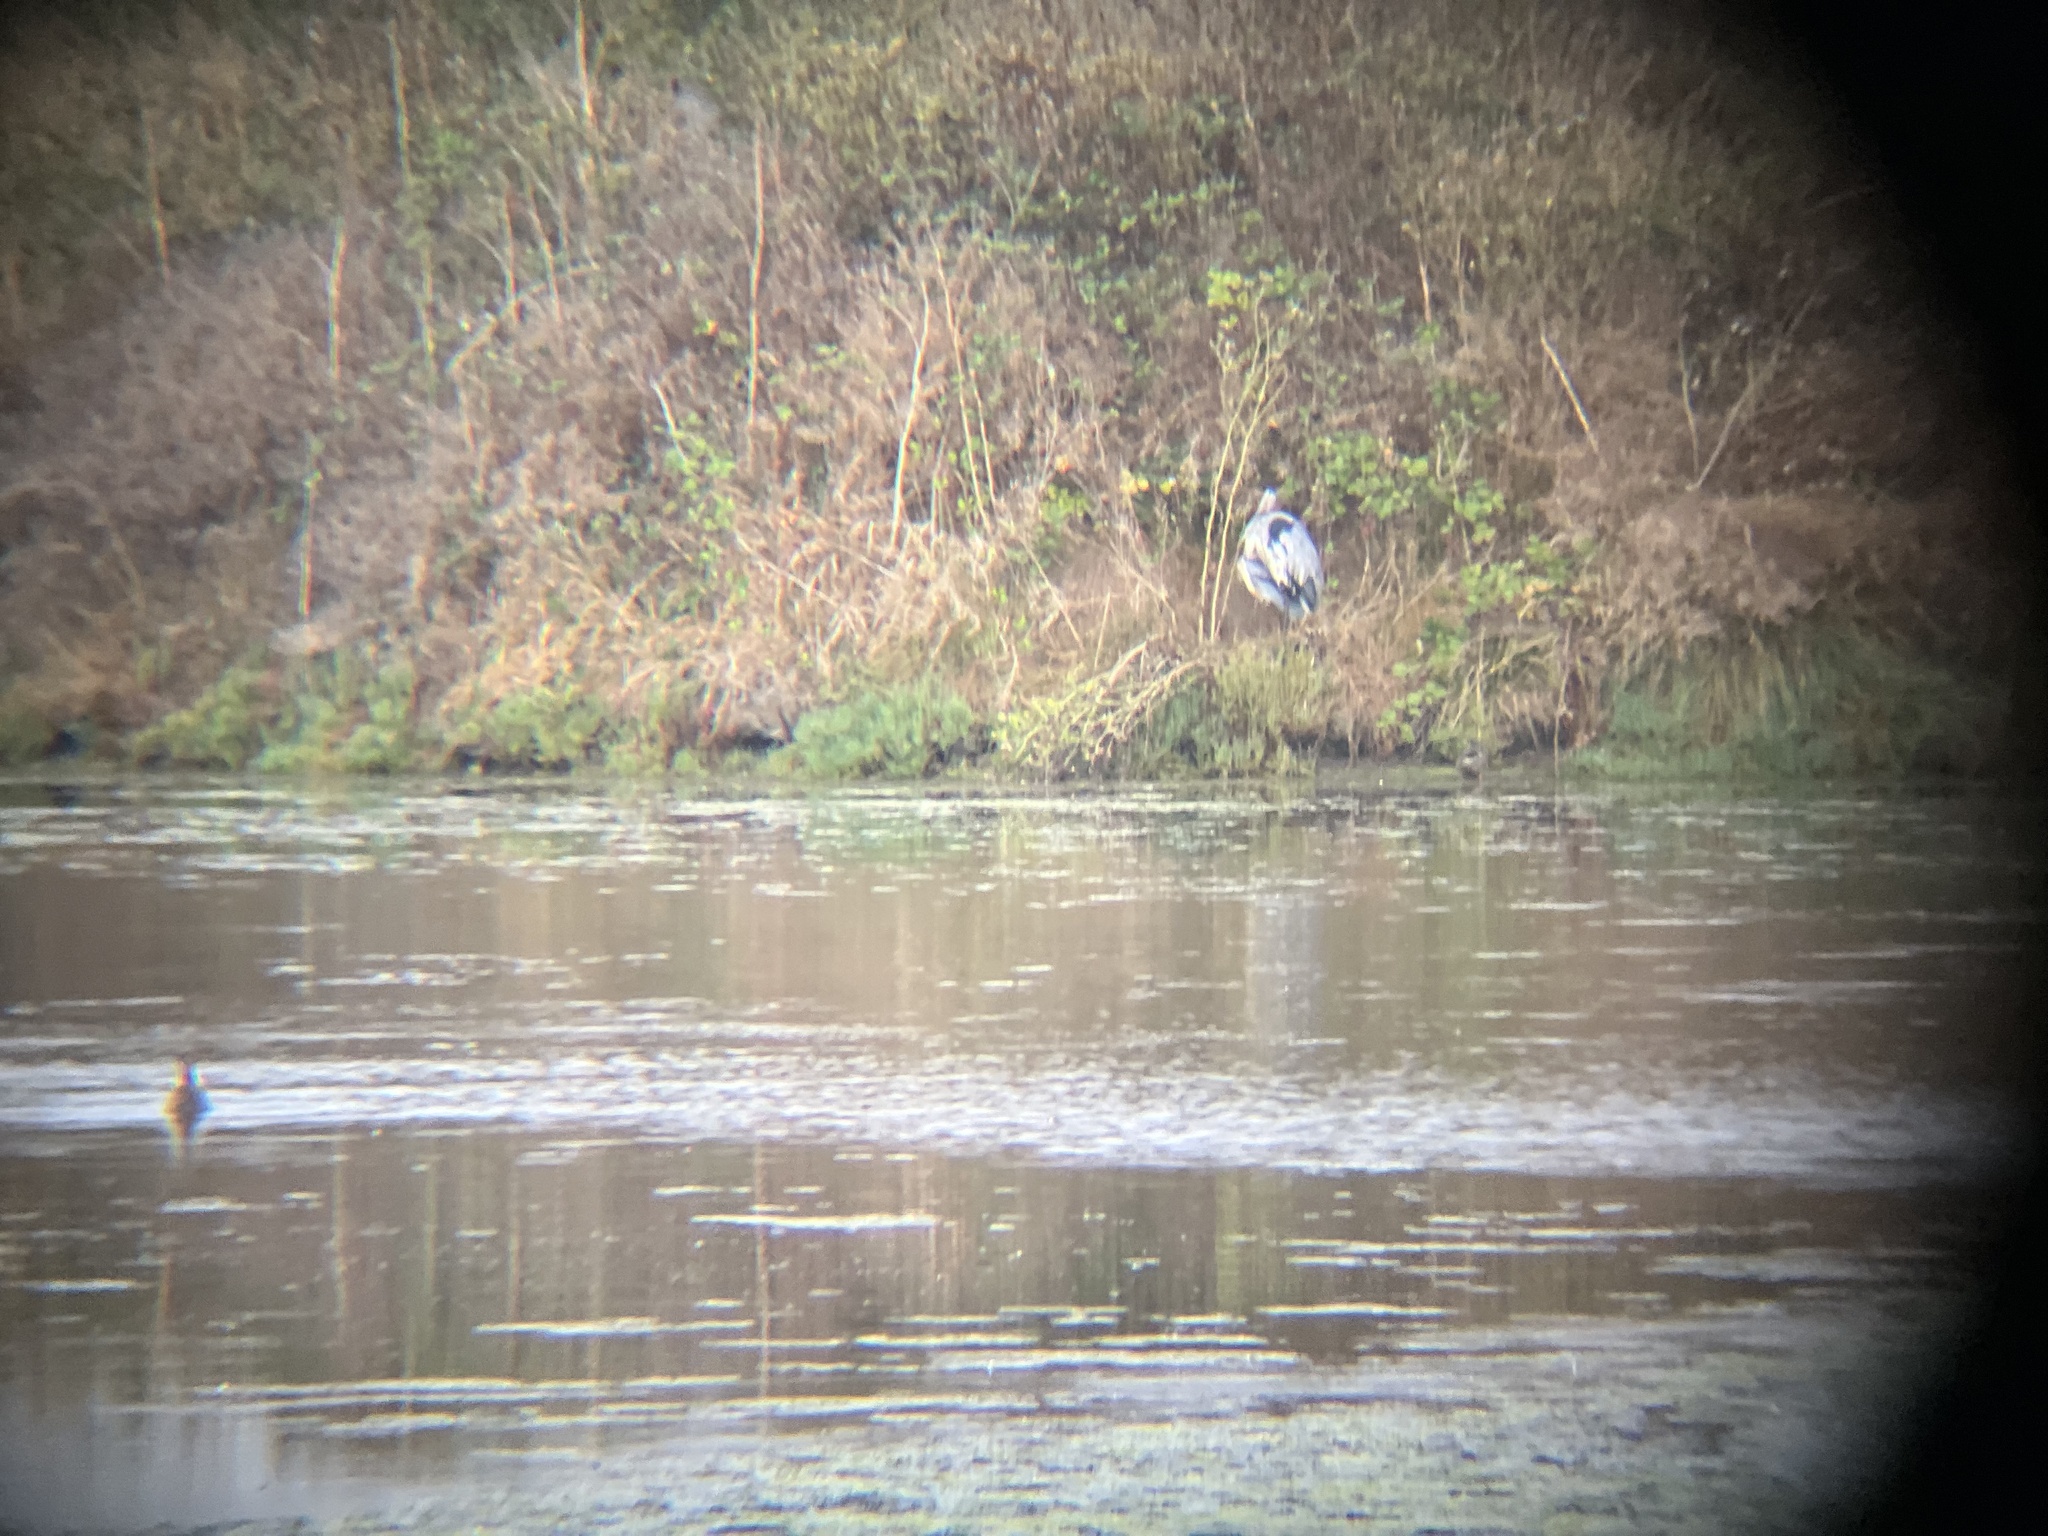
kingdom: Animalia
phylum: Chordata
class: Aves
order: Pelecaniformes
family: Ardeidae
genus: Ardea
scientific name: Ardea herodias
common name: Great blue heron
